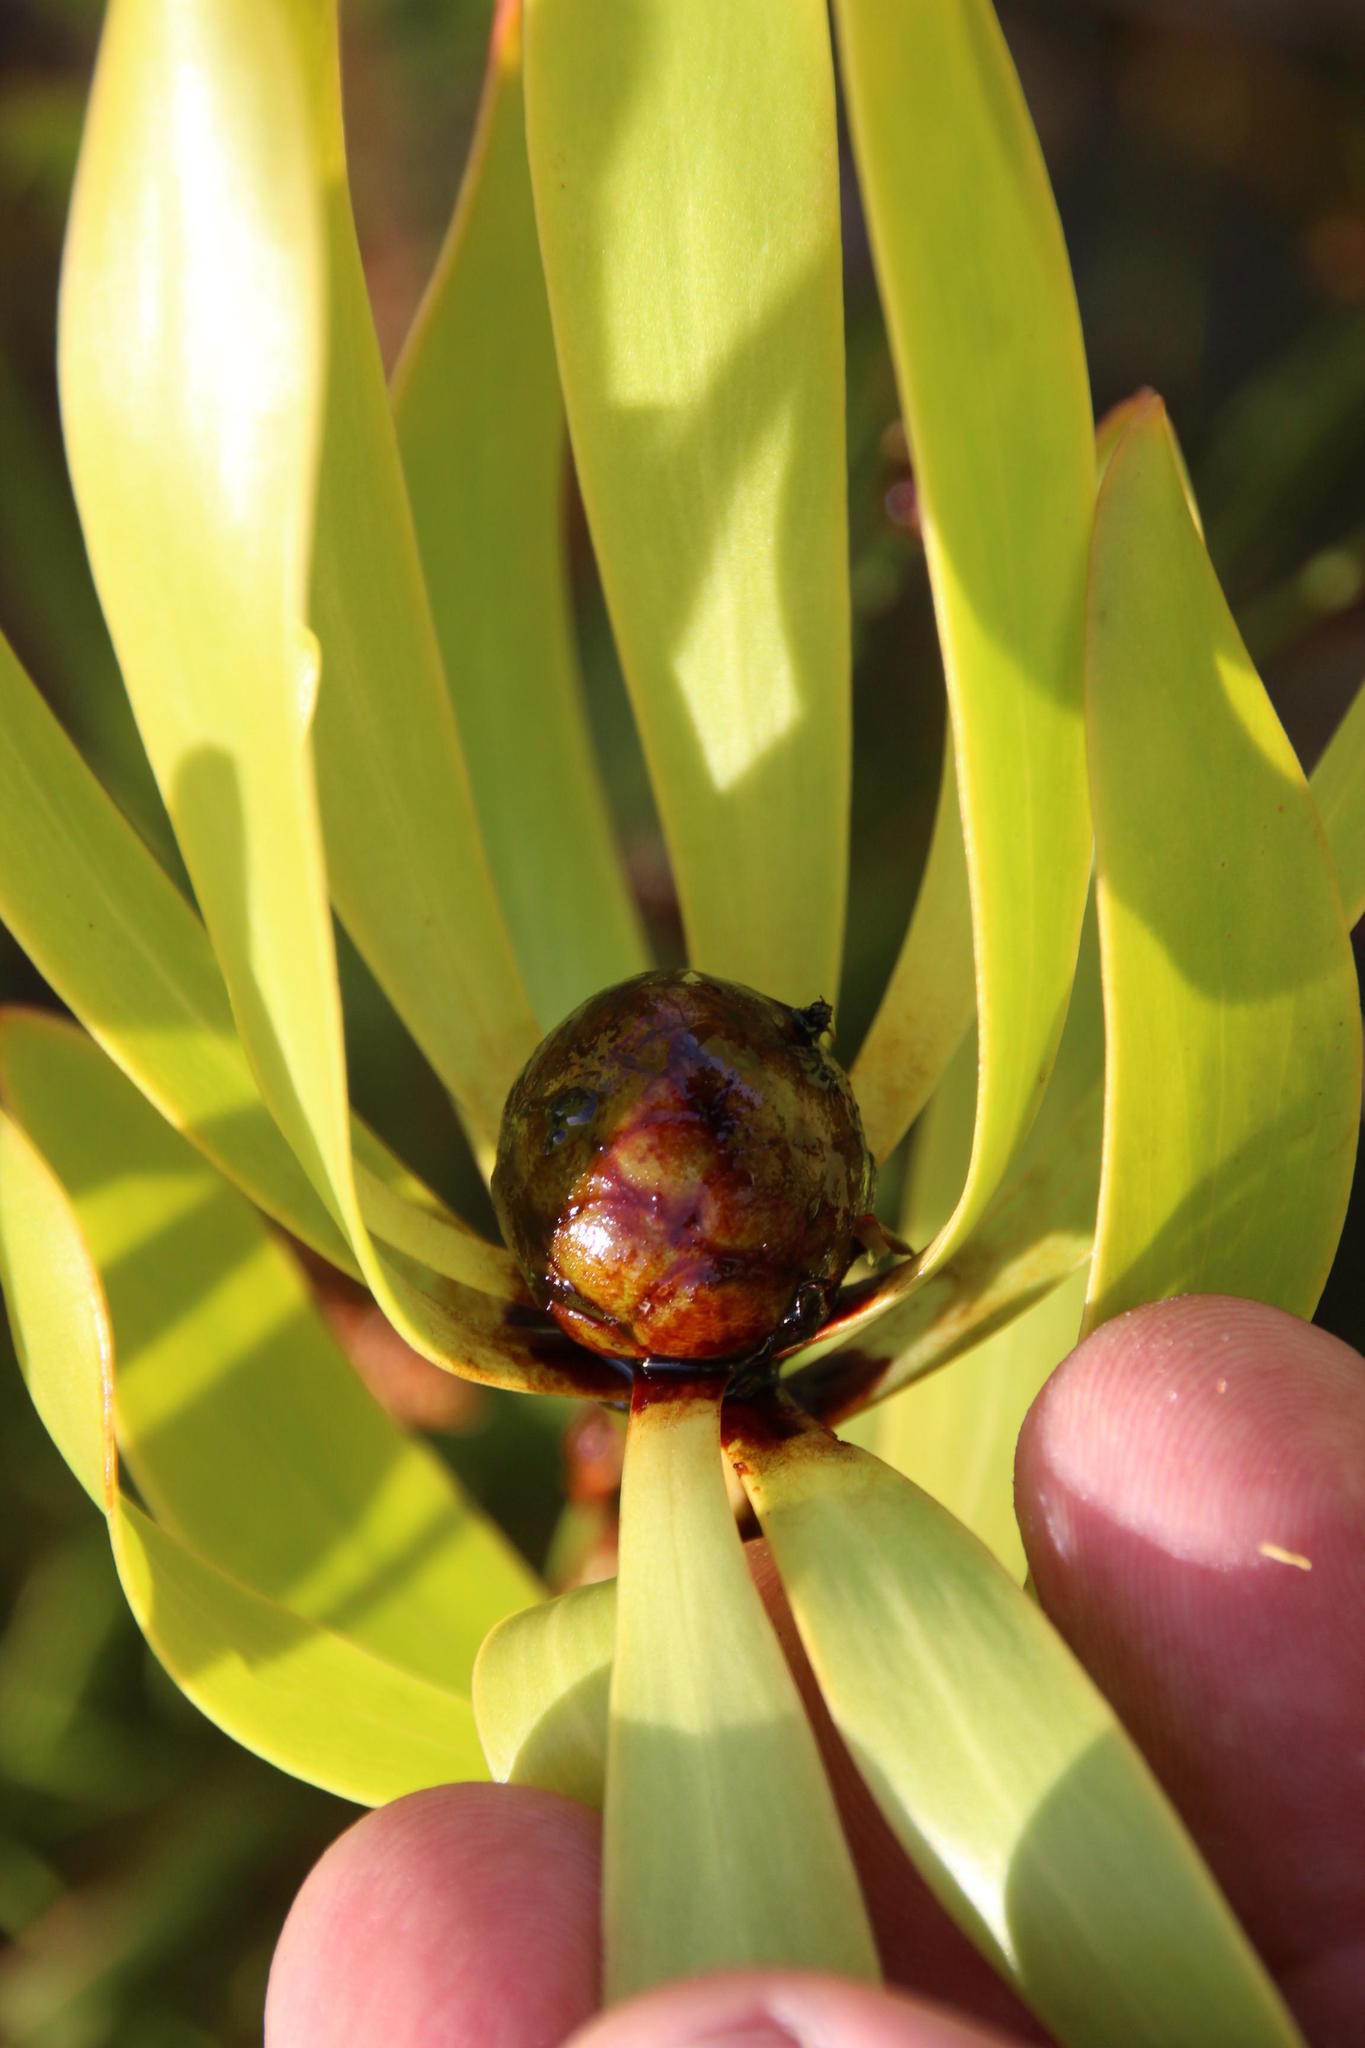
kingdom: Plantae
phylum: Tracheophyta
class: Magnoliopsida
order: Proteales
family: Proteaceae
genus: Leucadendron
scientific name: Leucadendron microcephalum
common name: Oilbract conebush
